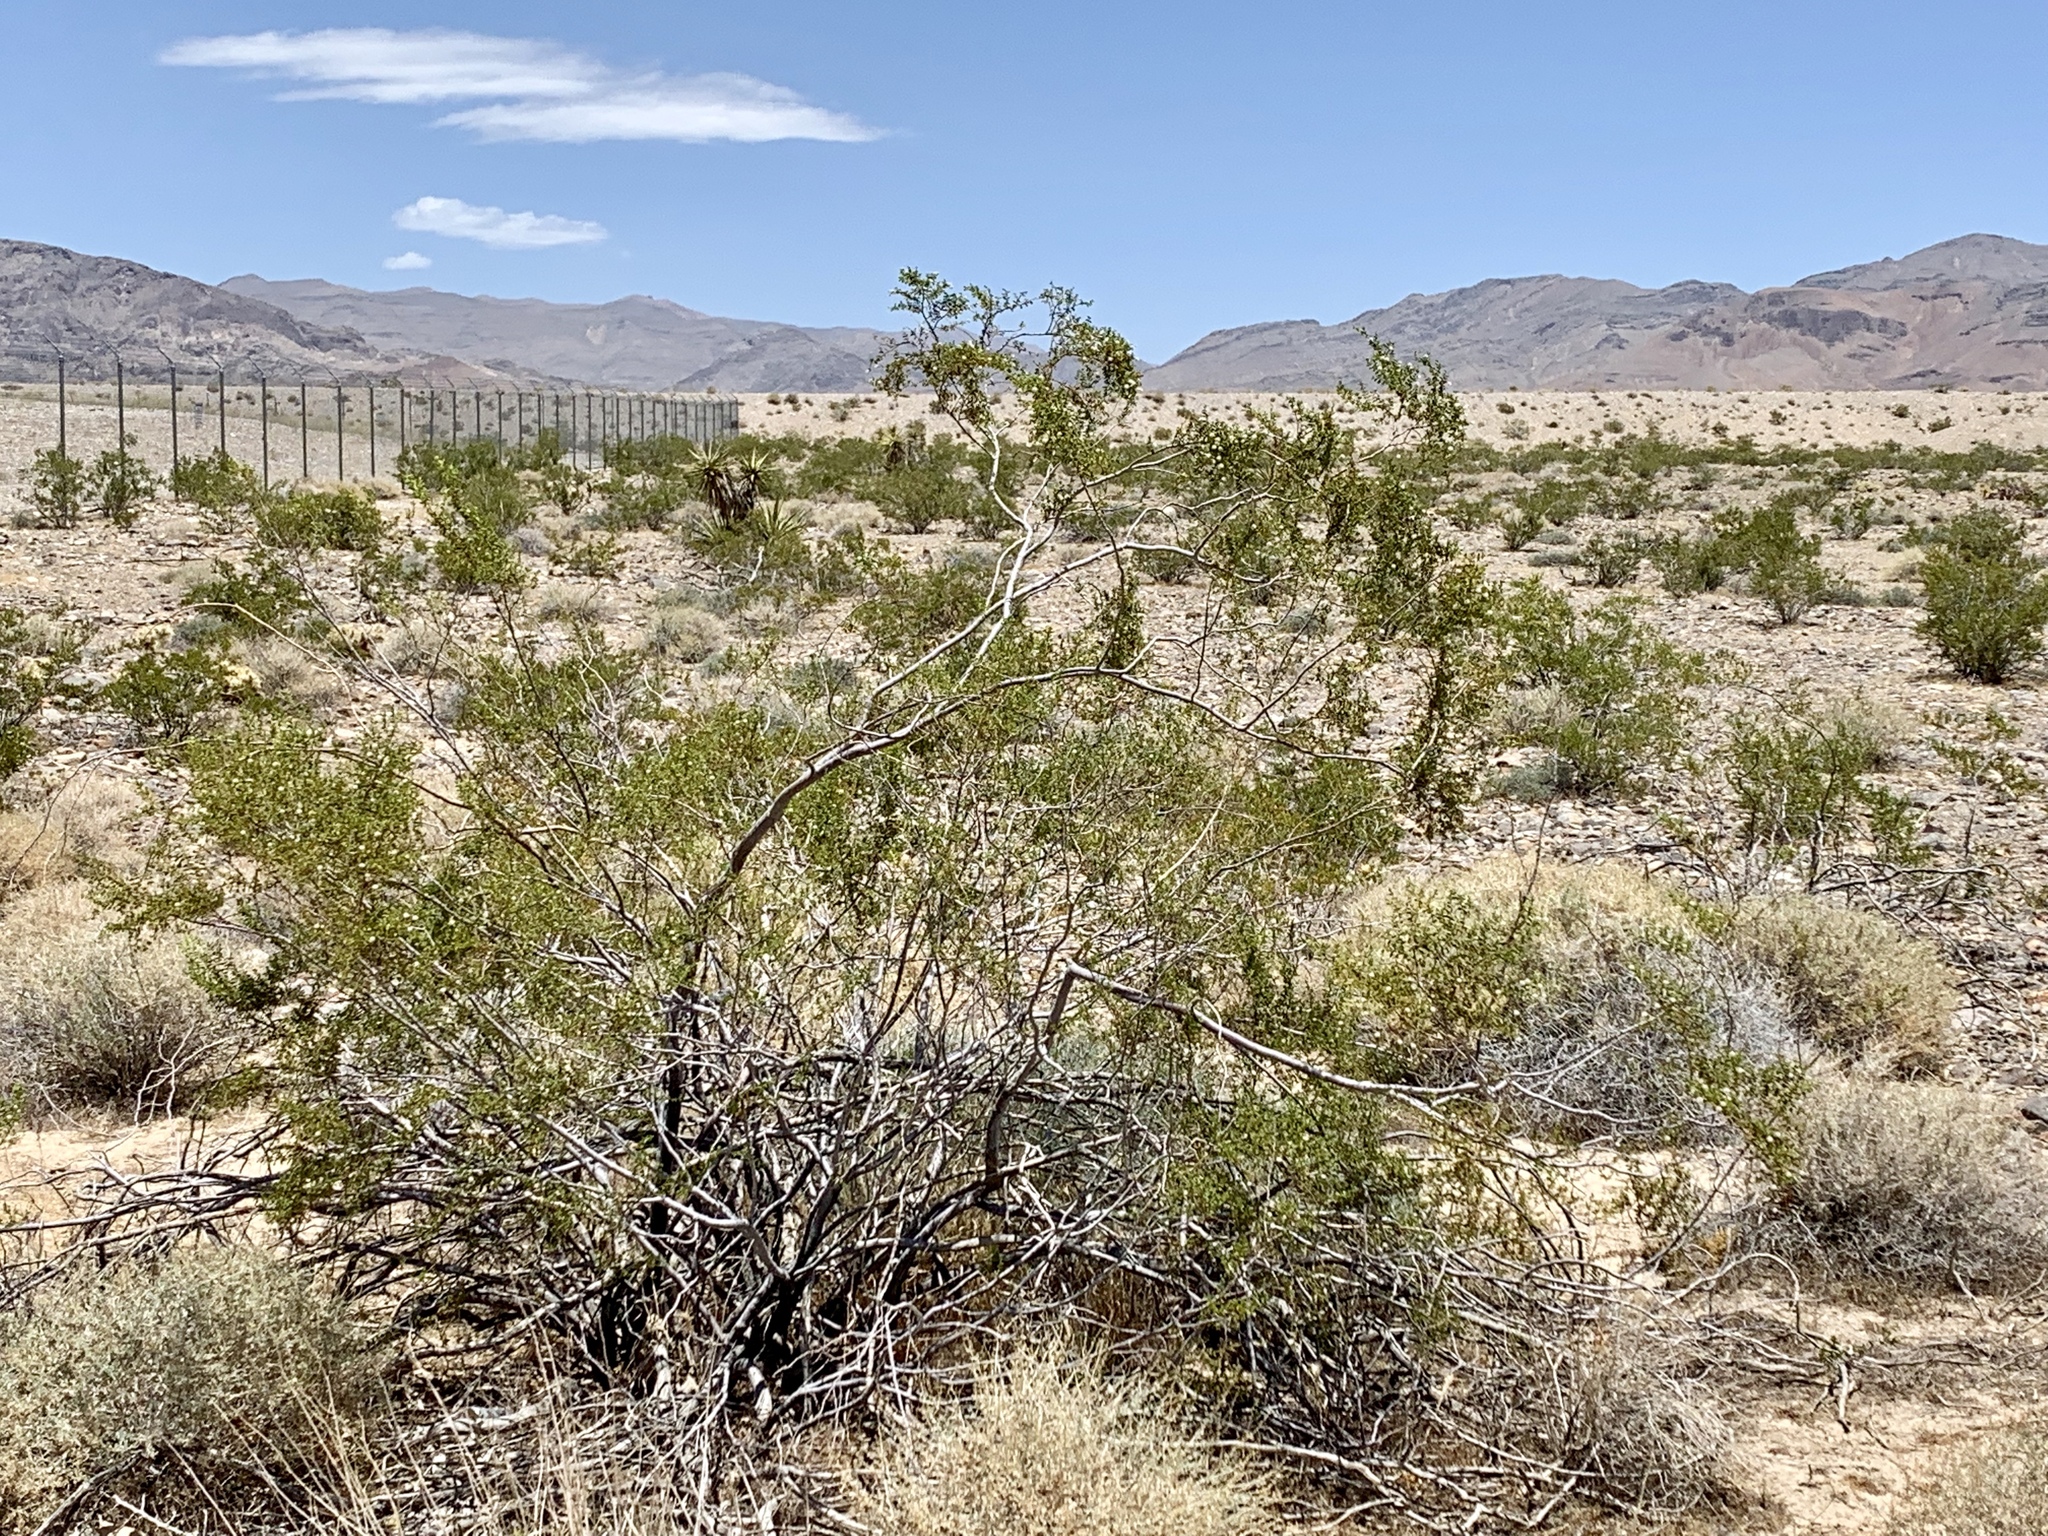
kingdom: Plantae
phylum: Tracheophyta
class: Magnoliopsida
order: Zygophyllales
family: Zygophyllaceae
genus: Larrea
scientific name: Larrea tridentata
